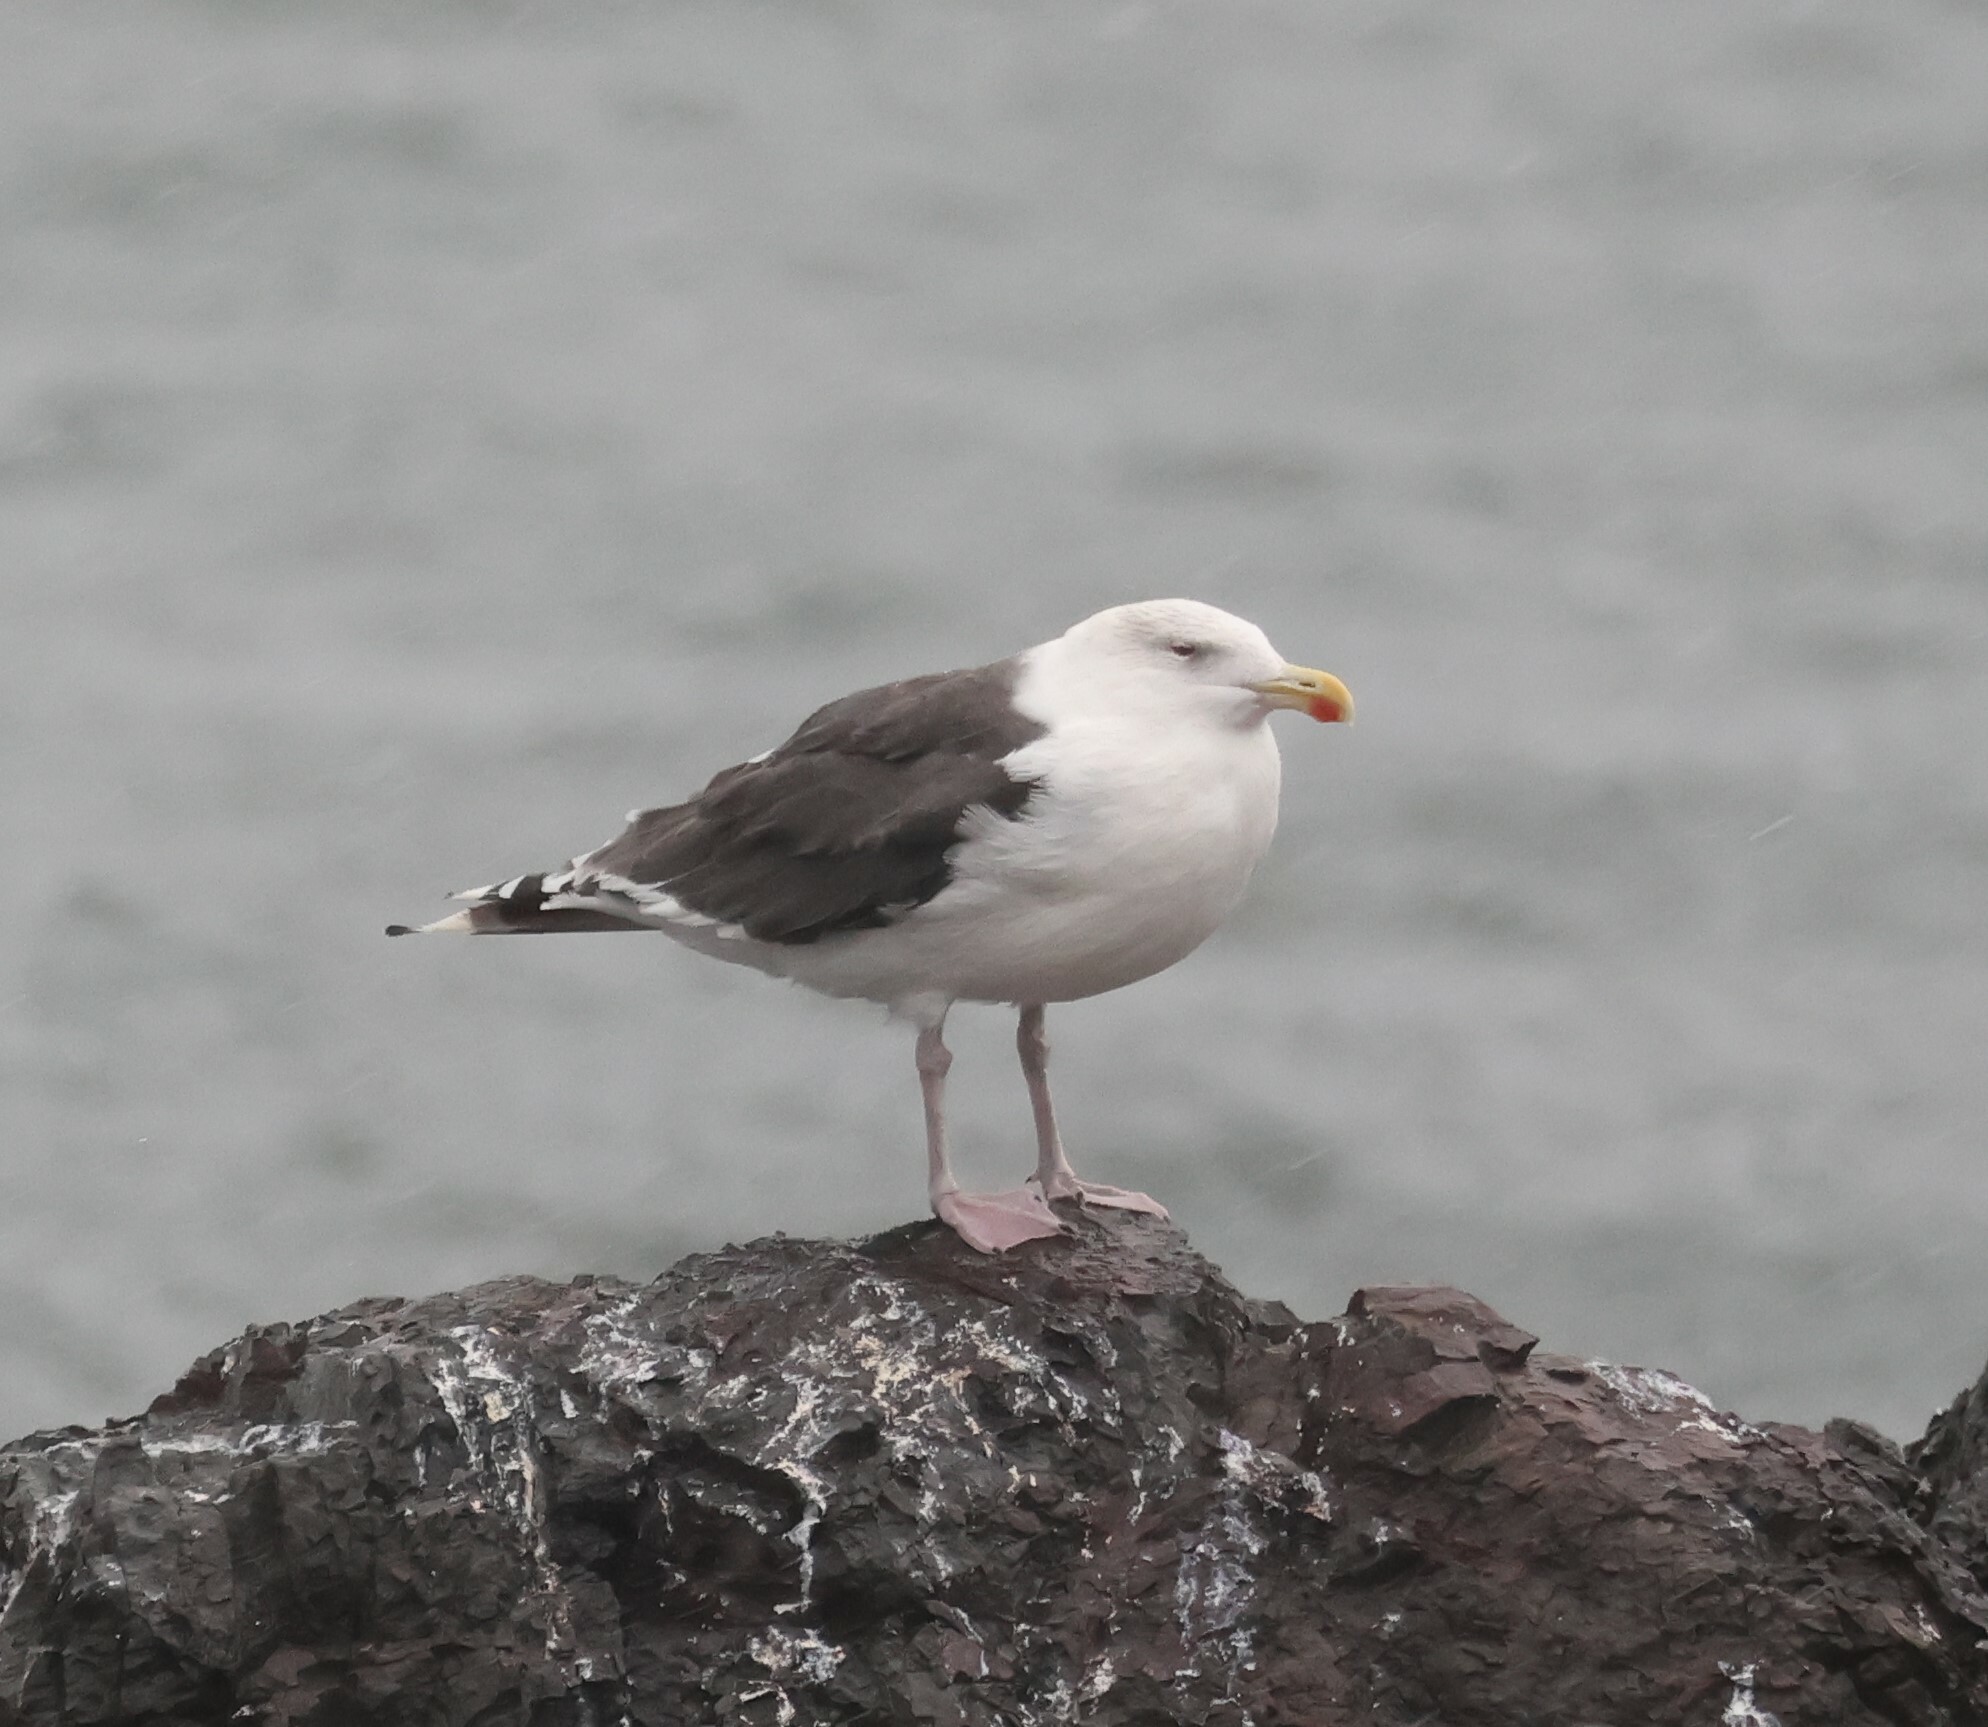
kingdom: Animalia
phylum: Chordata
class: Aves
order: Charadriiformes
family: Laridae
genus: Larus
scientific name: Larus marinus
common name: Great black-backed gull
